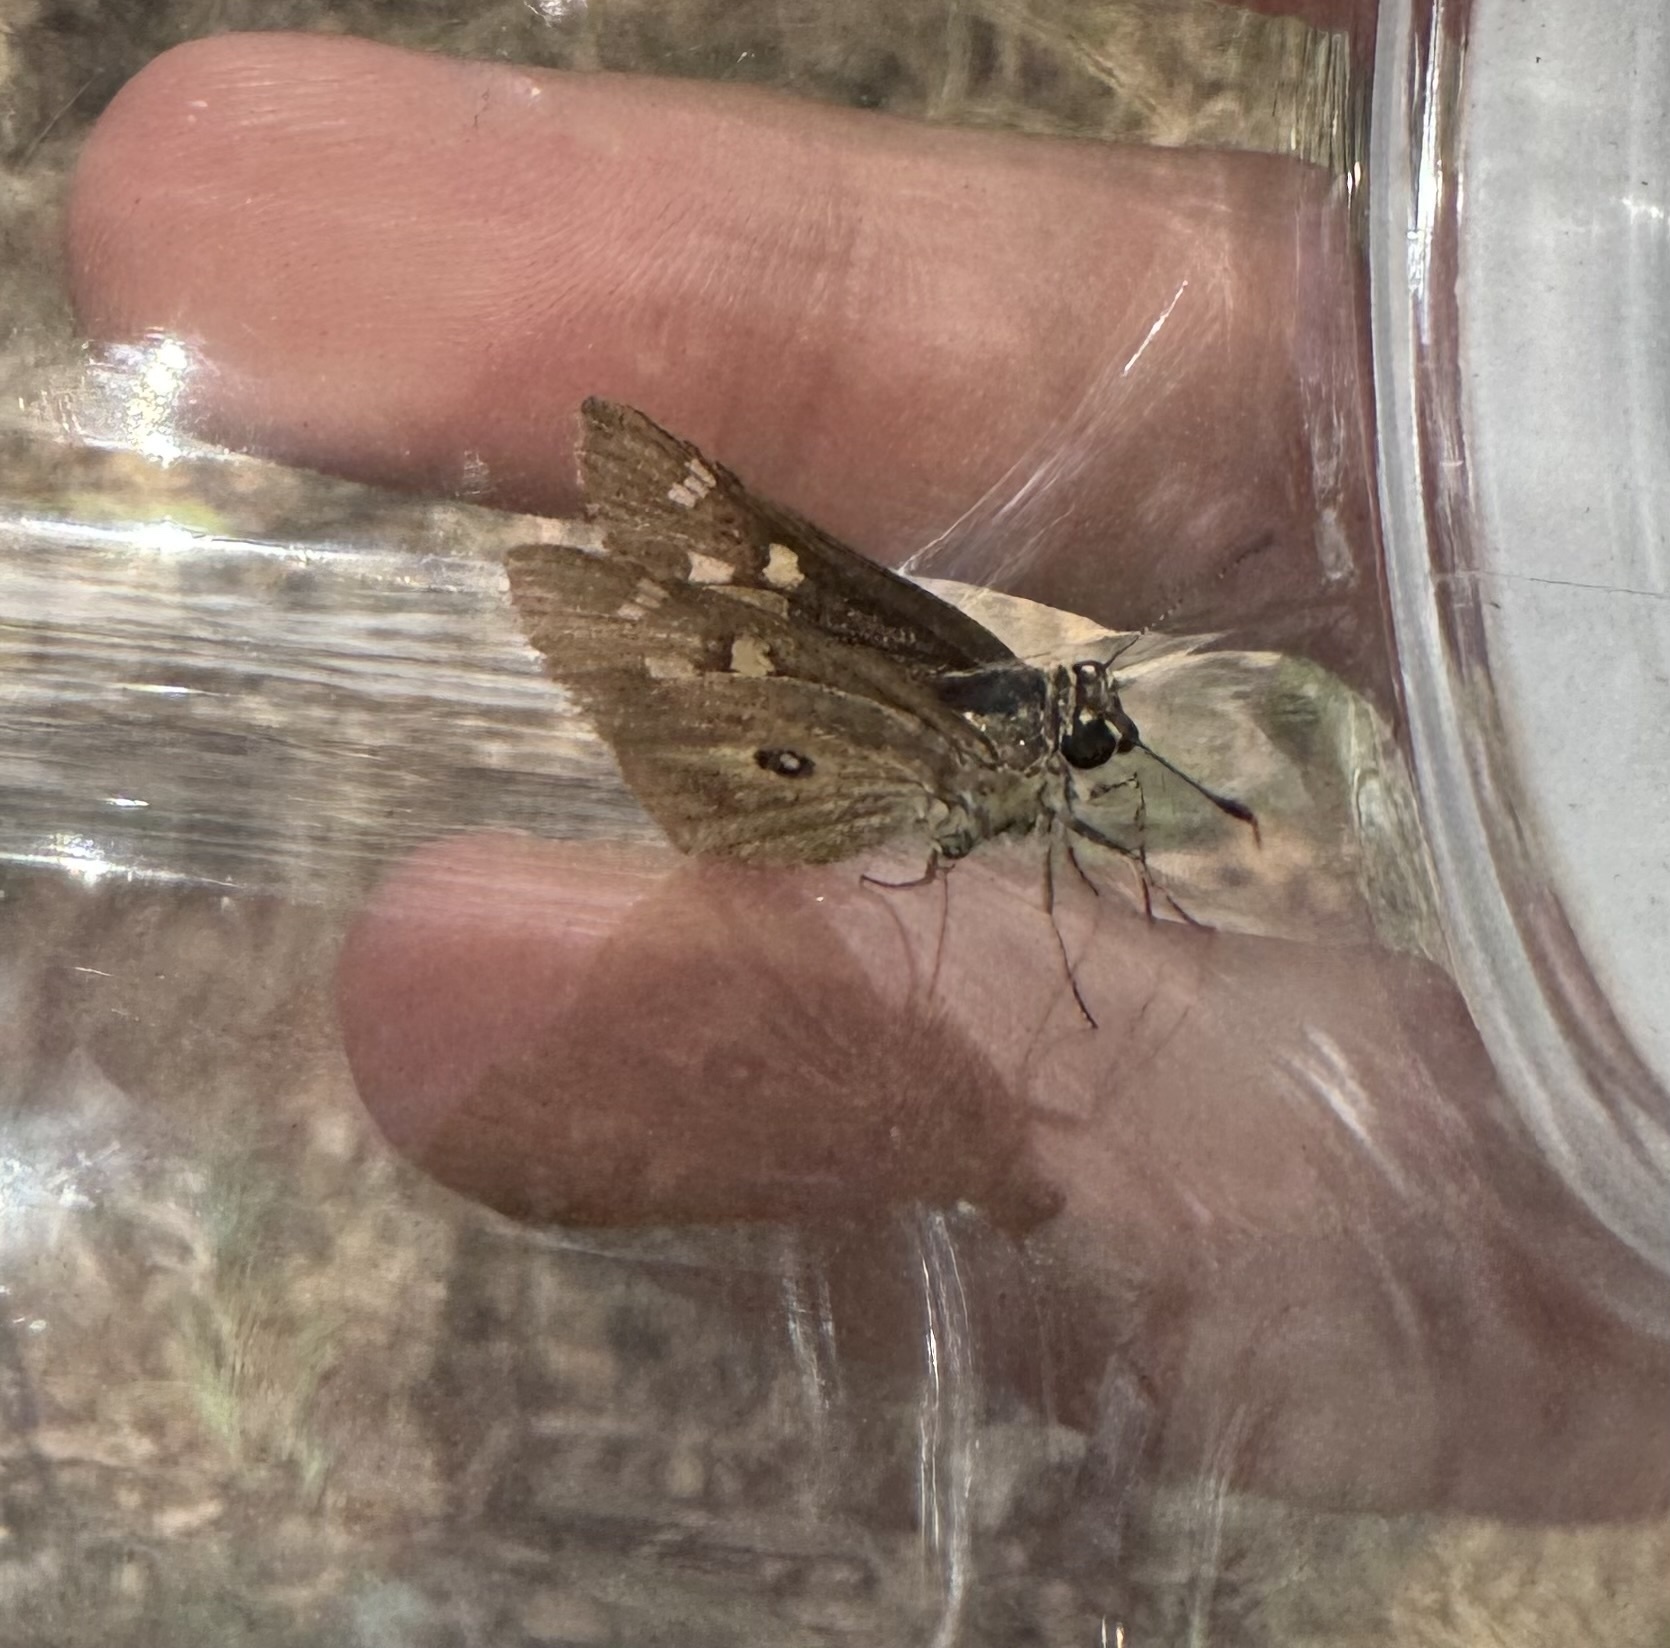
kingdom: Animalia
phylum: Arthropoda
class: Insecta
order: Lepidoptera
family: Hesperiidae
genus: Trapezites
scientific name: Trapezites petalia
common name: Black-ringed ochre
